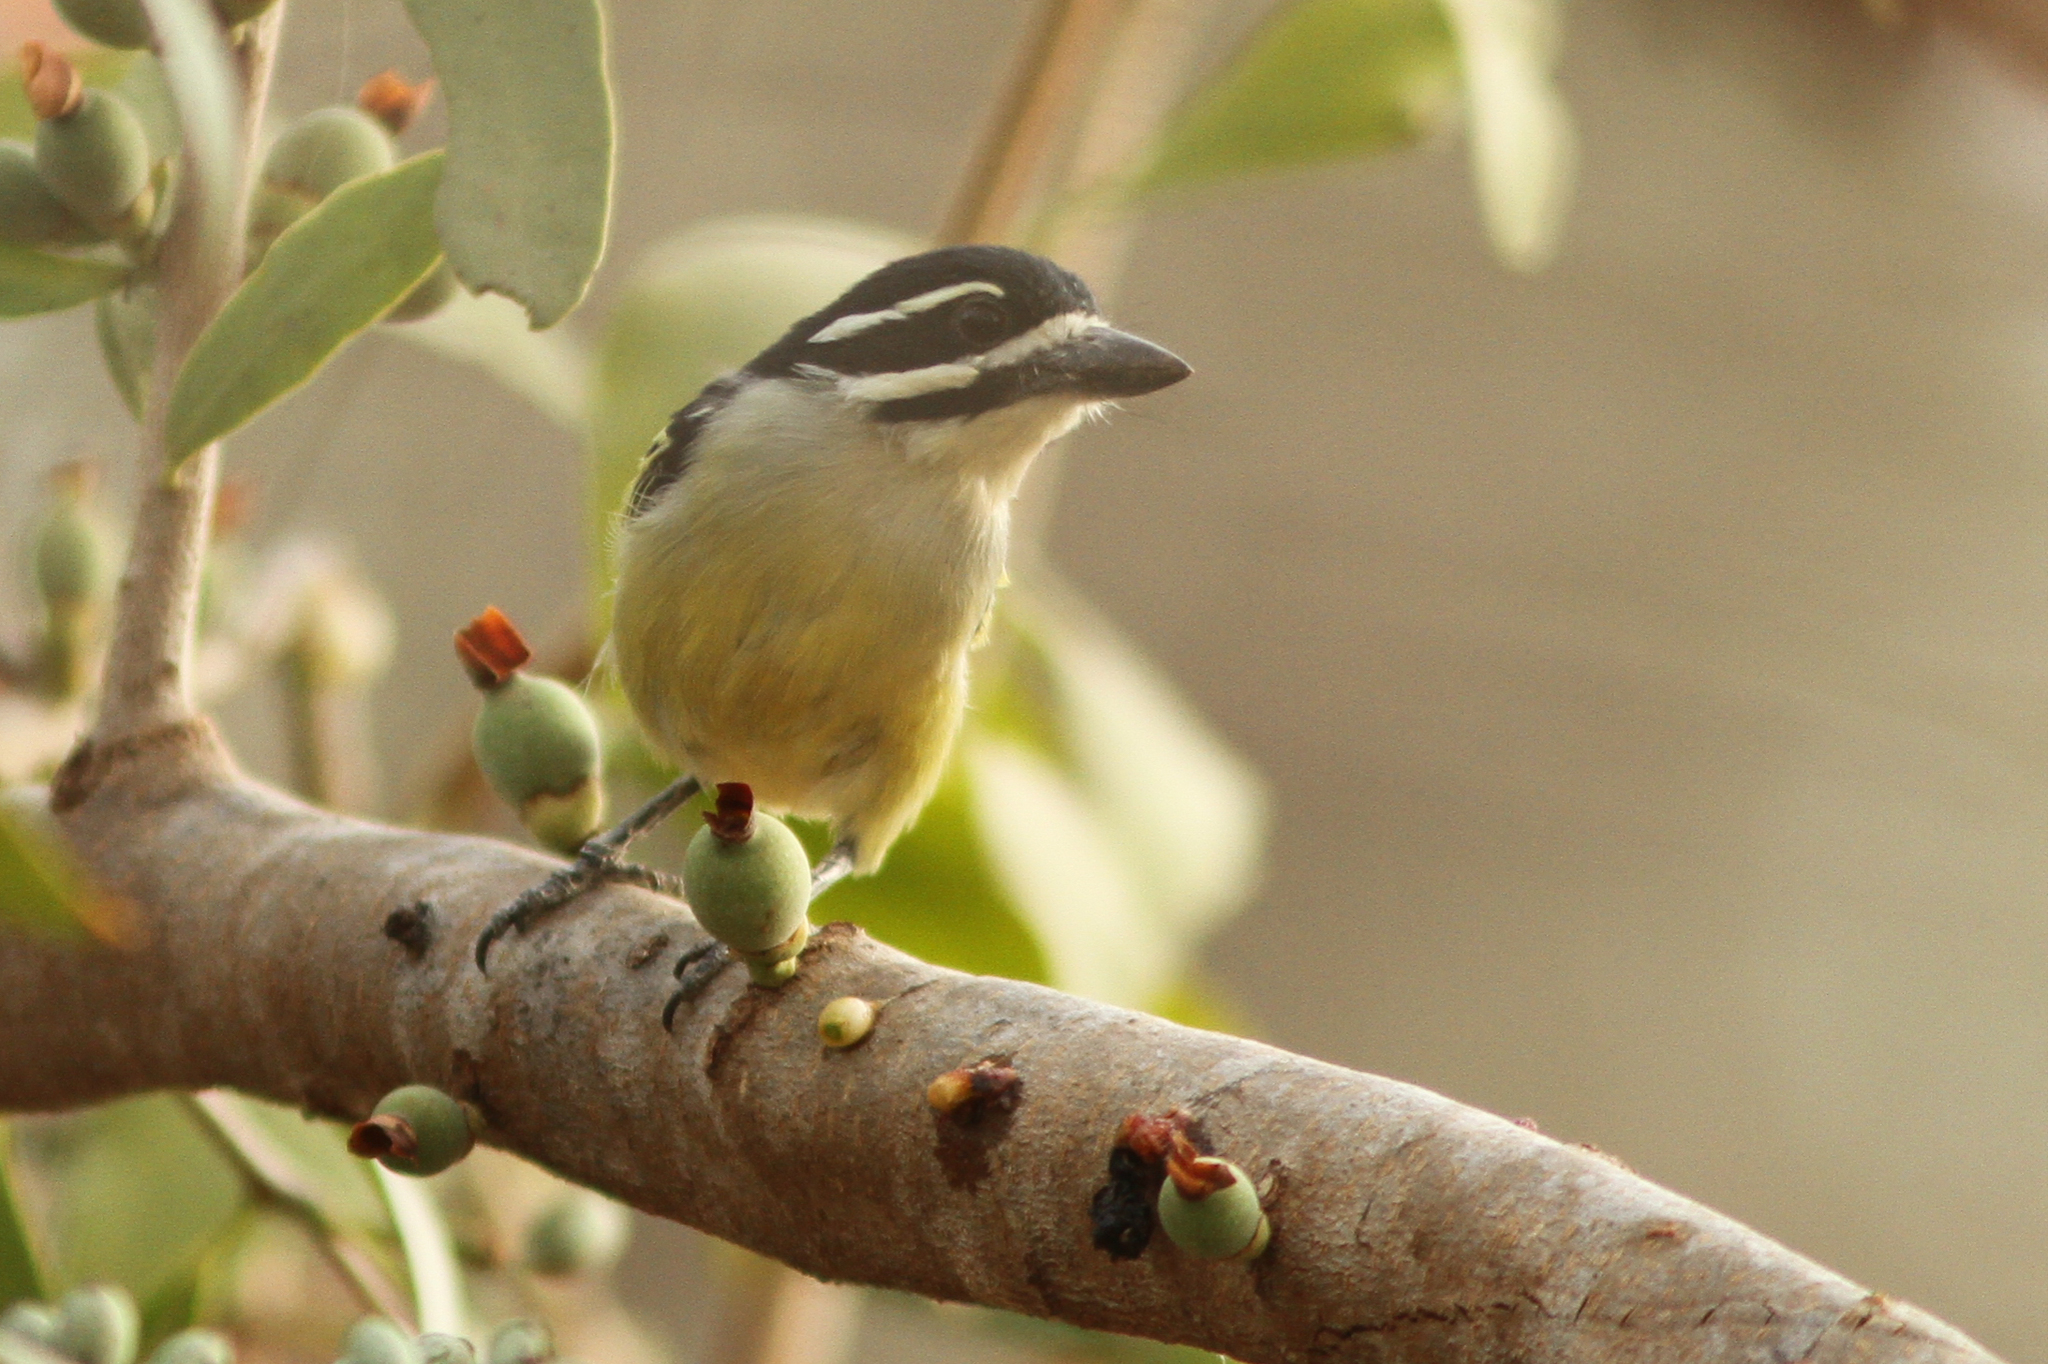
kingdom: Animalia
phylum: Chordata
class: Aves
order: Piciformes
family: Lybiidae
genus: Pogoniulus
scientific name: Pogoniulus bilineatus
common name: Yellow-rumped tinkerbird
